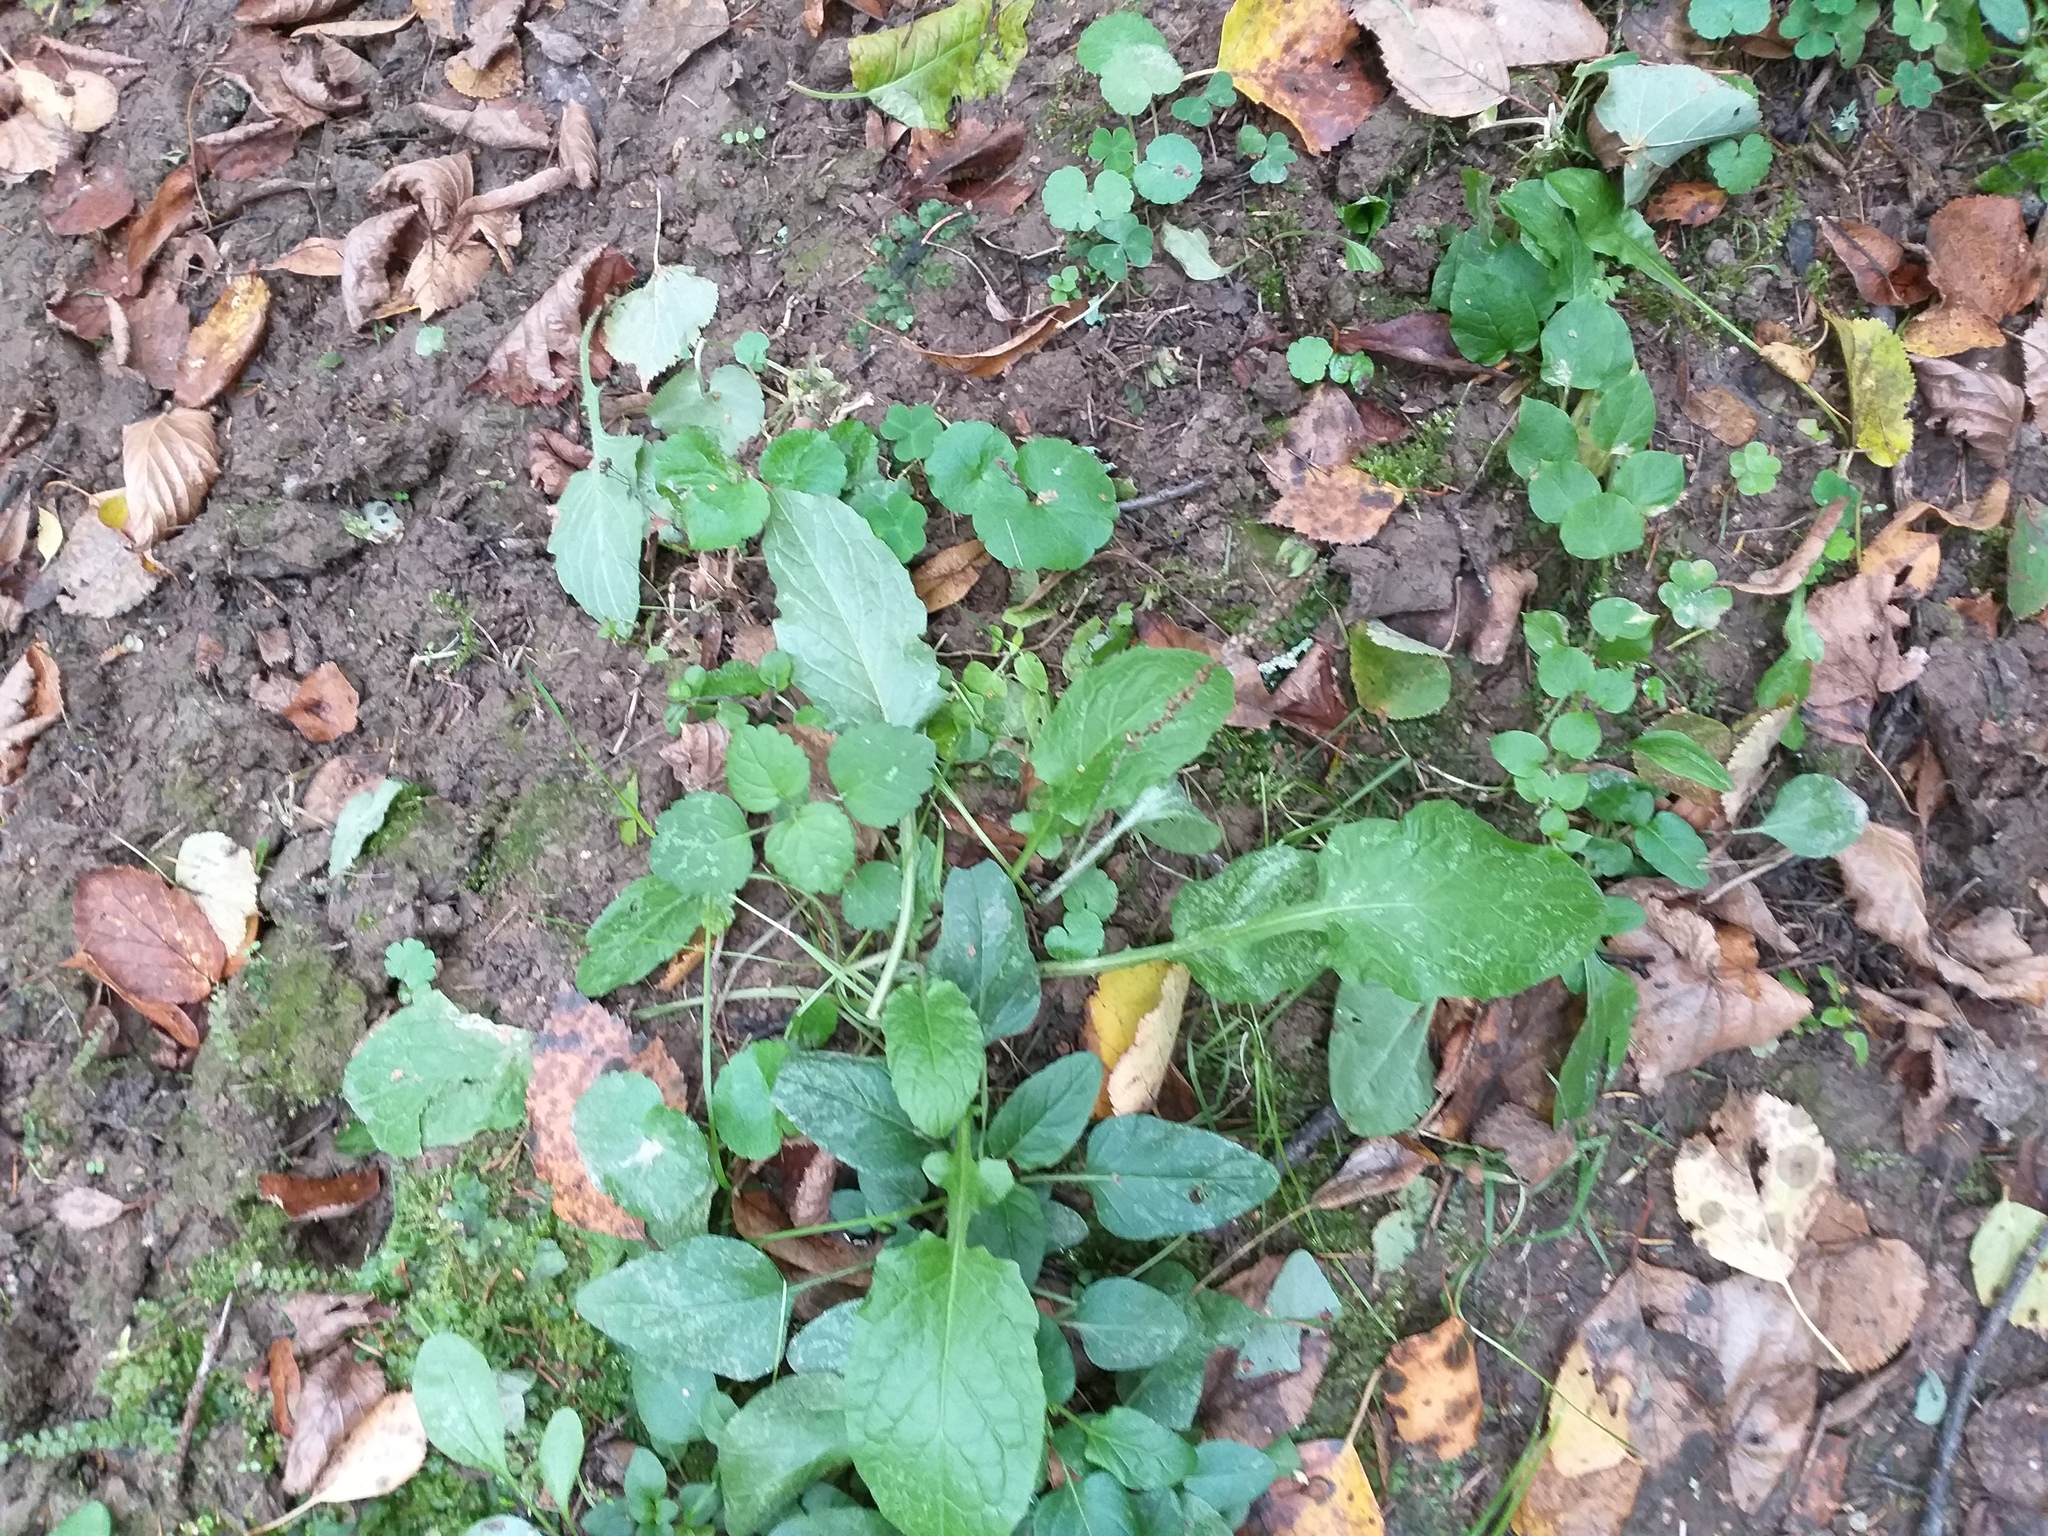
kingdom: Plantae
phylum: Tracheophyta
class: Magnoliopsida
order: Asterales
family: Asteraceae
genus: Lapsana
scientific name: Lapsana communis
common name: Nipplewort
